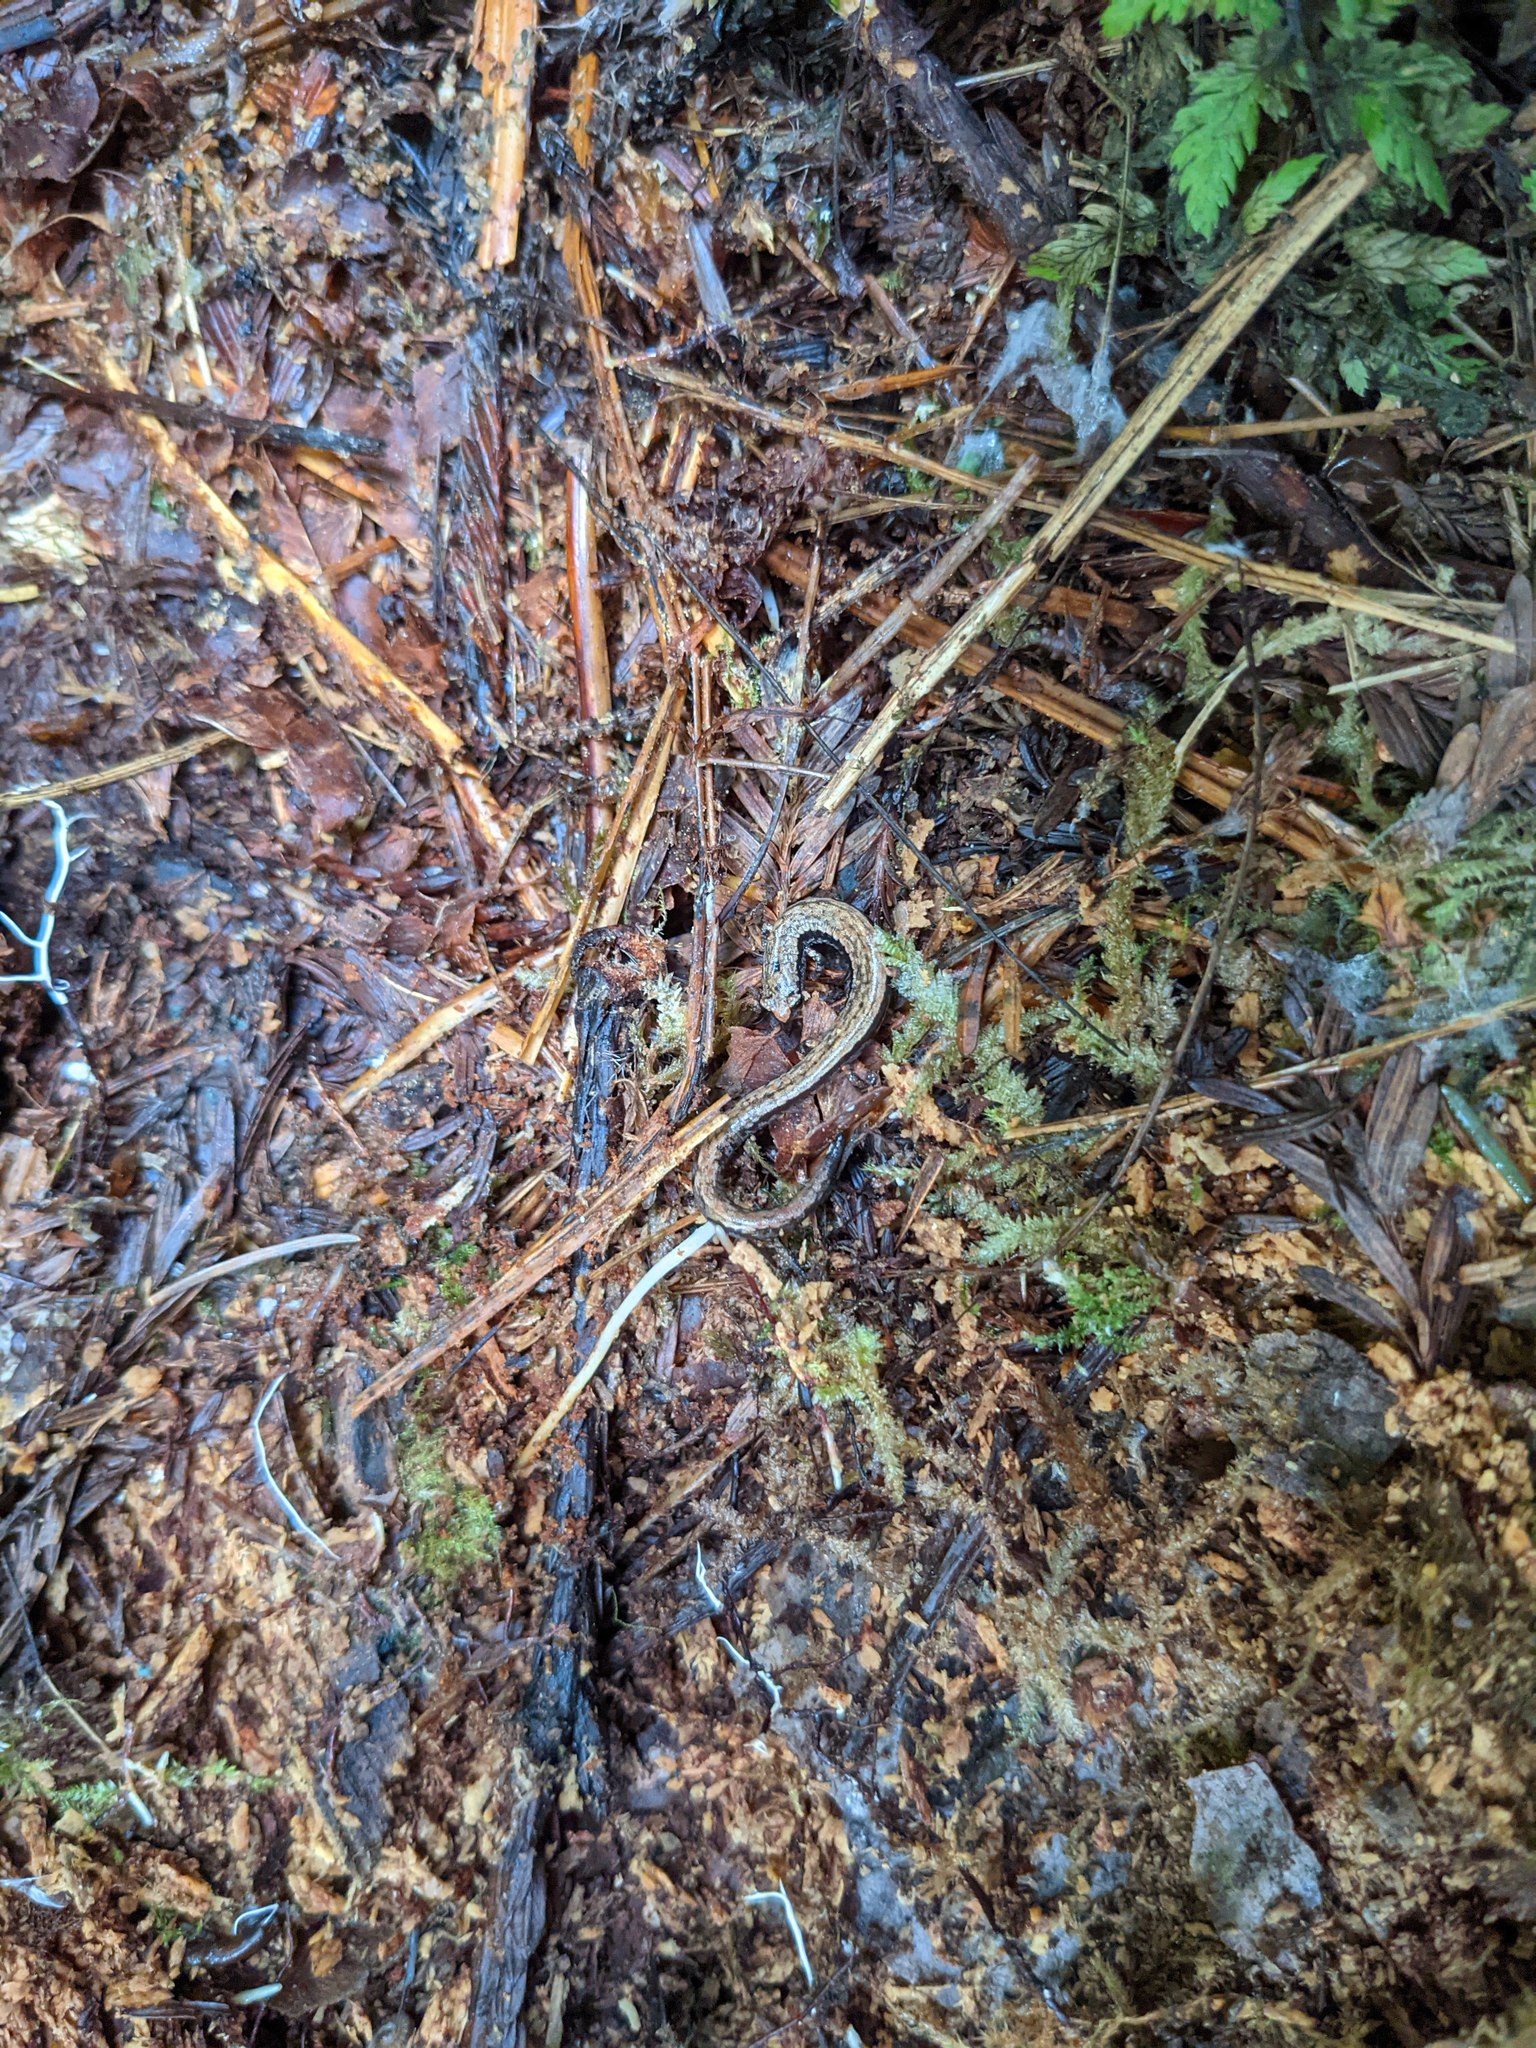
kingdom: Animalia
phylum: Chordata
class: Amphibia
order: Caudata
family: Plethodontidae
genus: Batrachoseps
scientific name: Batrachoseps attenuatus
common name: California slender salamander
